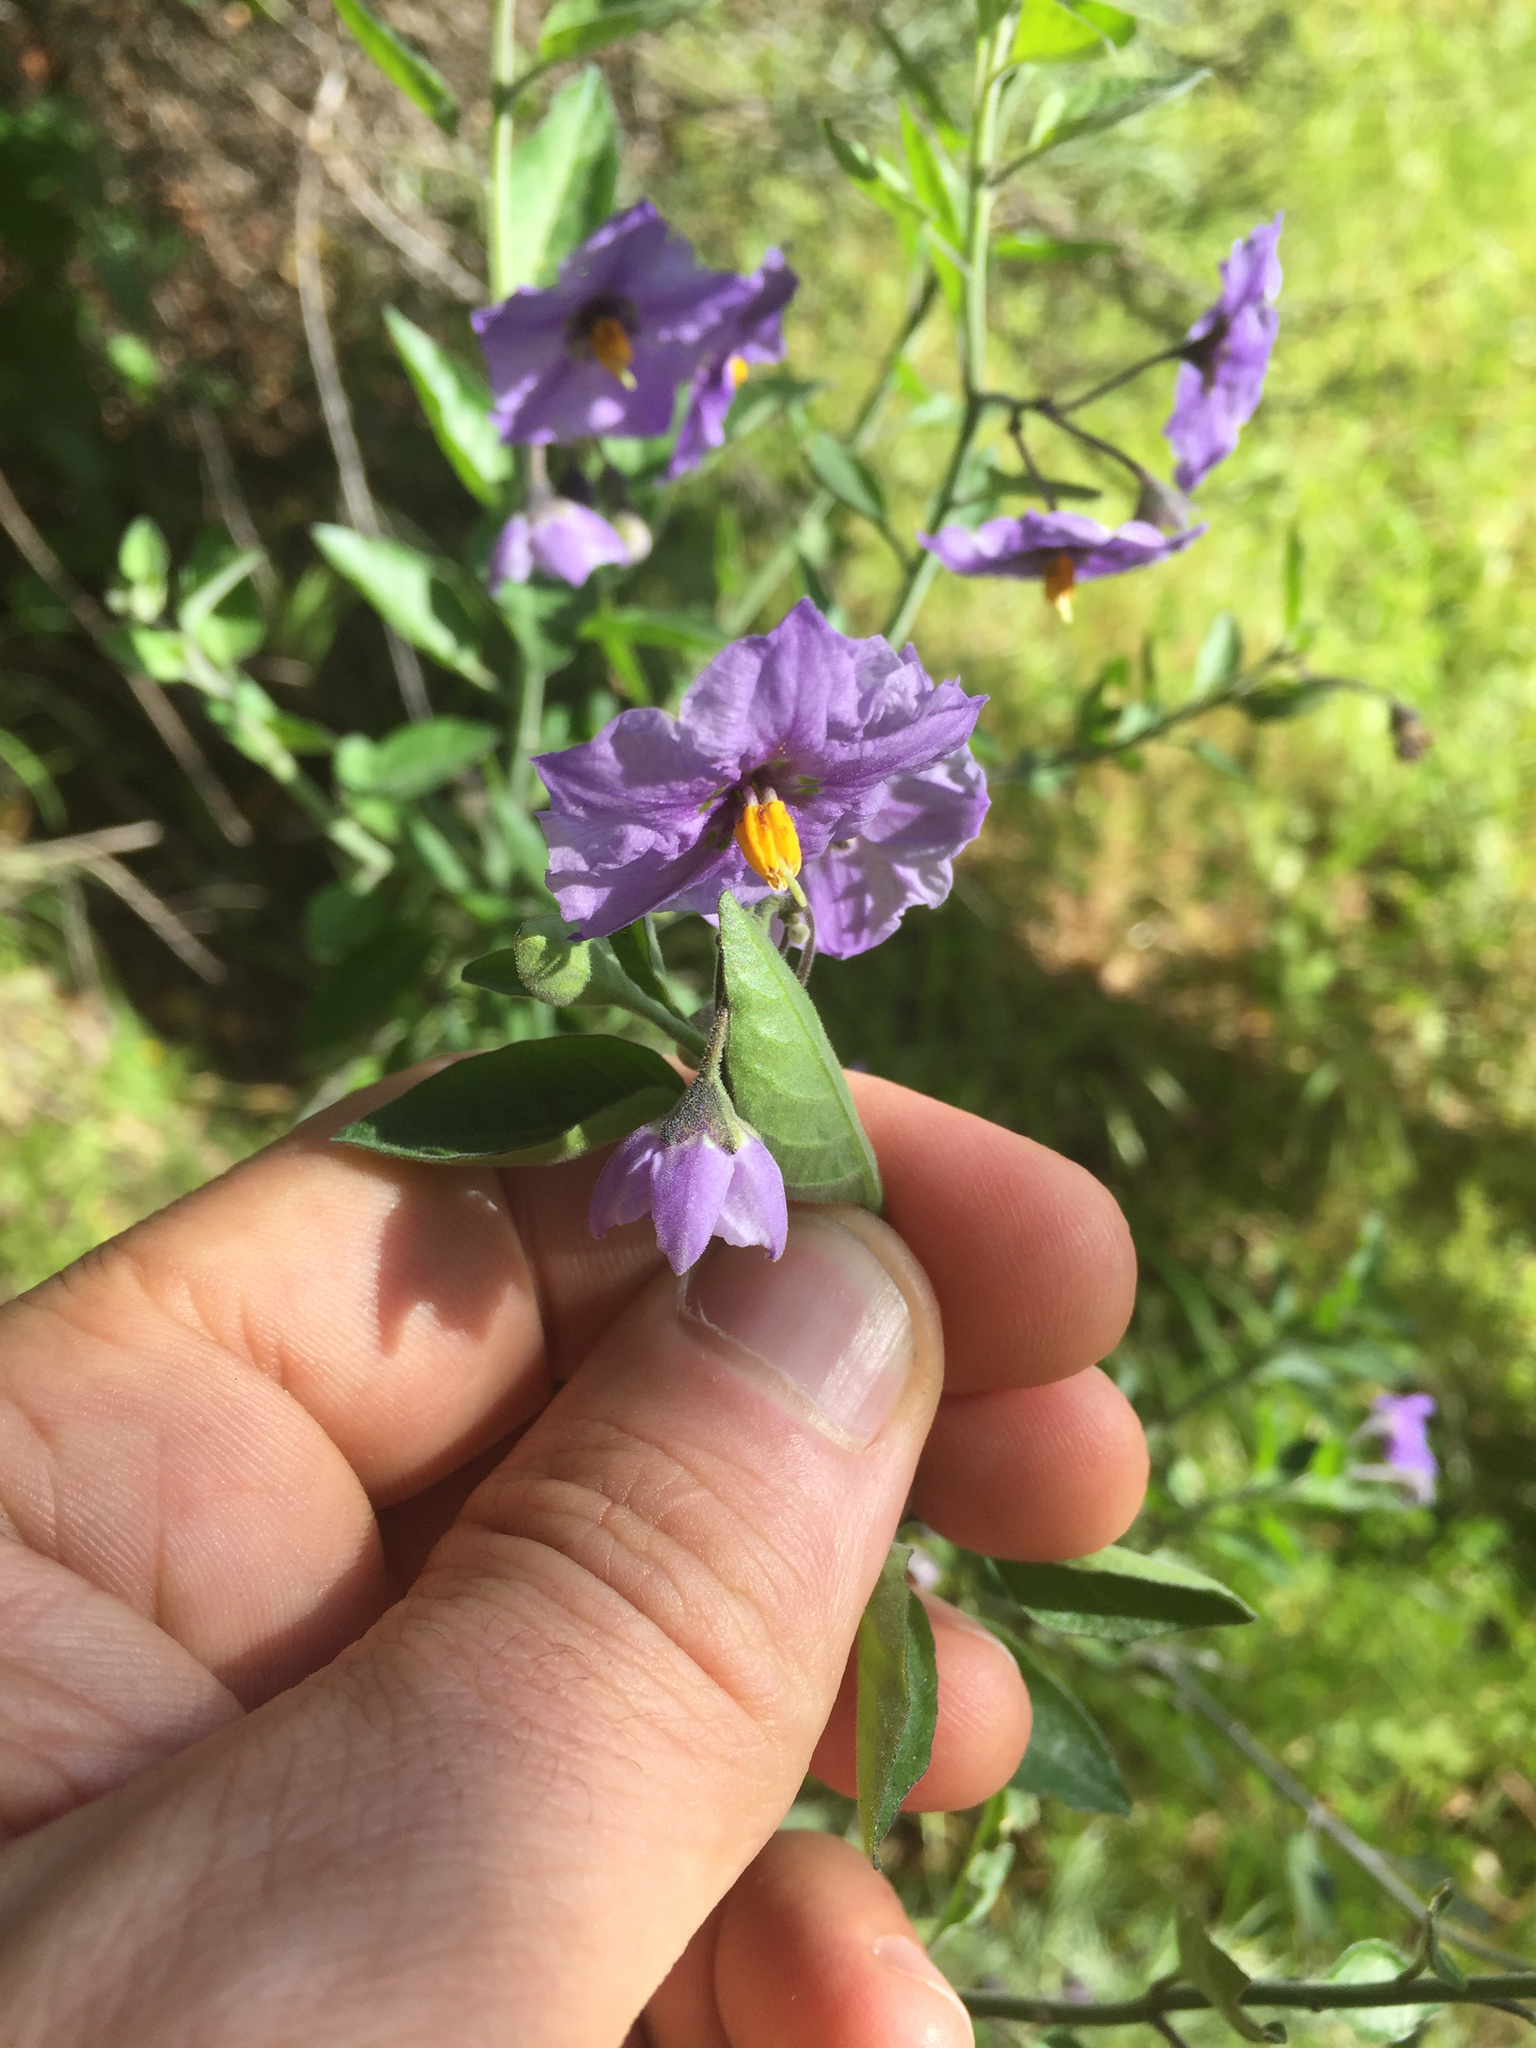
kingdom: Plantae
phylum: Tracheophyta
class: Magnoliopsida
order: Solanales
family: Solanaceae
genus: Solanum
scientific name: Solanum umbelliferum
